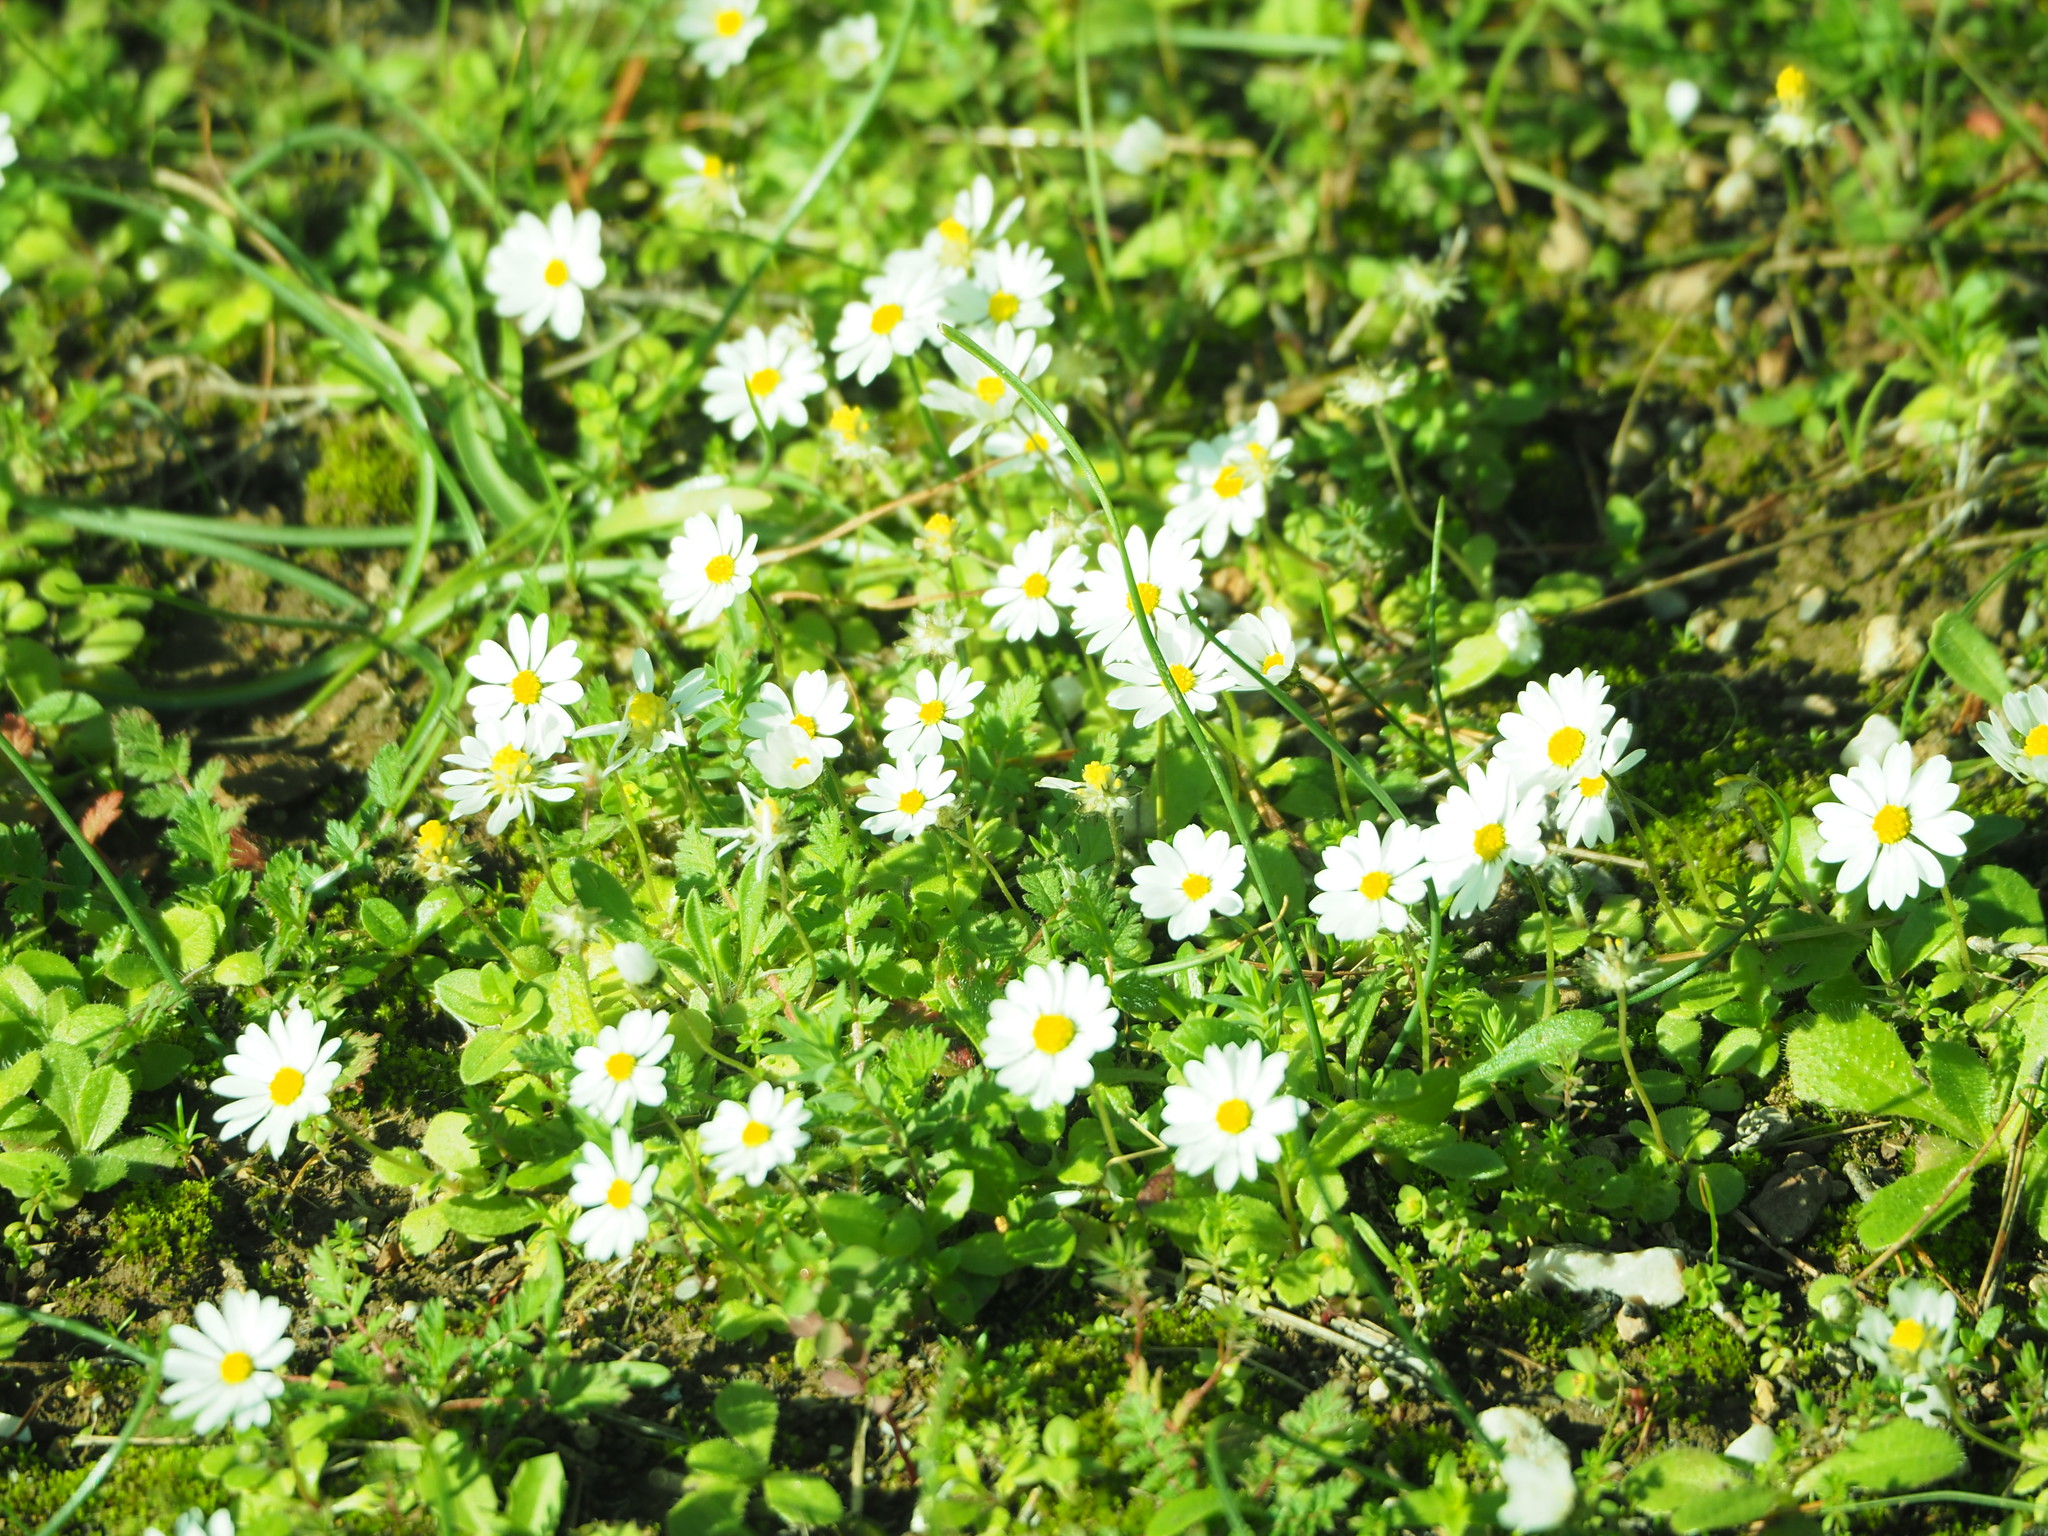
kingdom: Plantae
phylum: Tracheophyta
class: Magnoliopsida
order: Asterales
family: Asteraceae
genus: Tanacetum
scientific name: Tanacetum parthenium
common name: Feverfew
